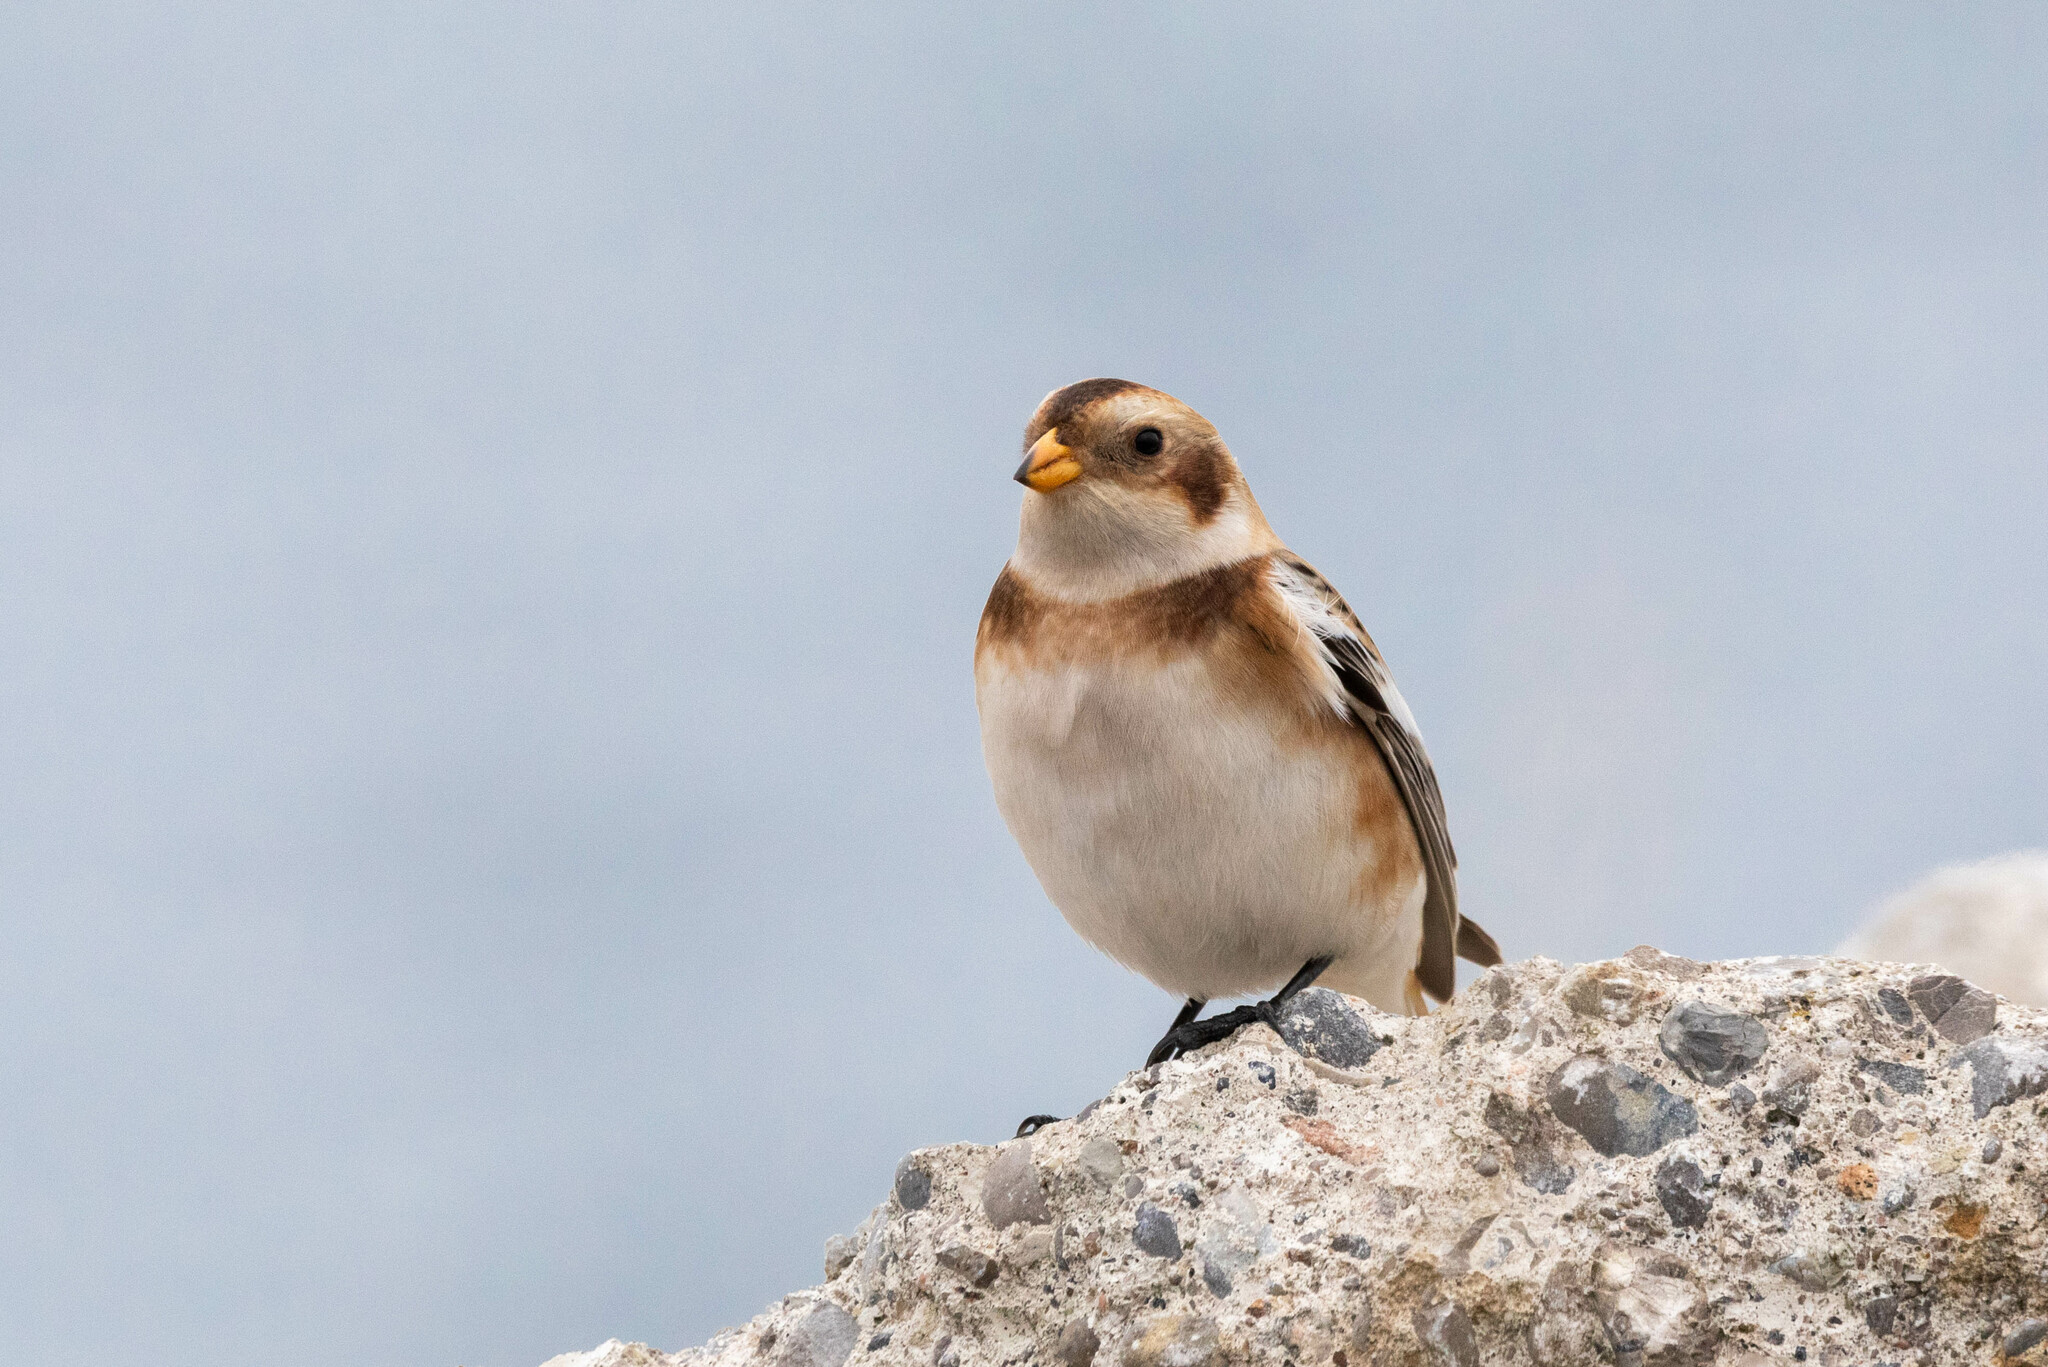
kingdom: Animalia
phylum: Chordata
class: Aves
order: Passeriformes
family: Calcariidae
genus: Plectrophenax
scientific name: Plectrophenax nivalis
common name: Snow bunting
